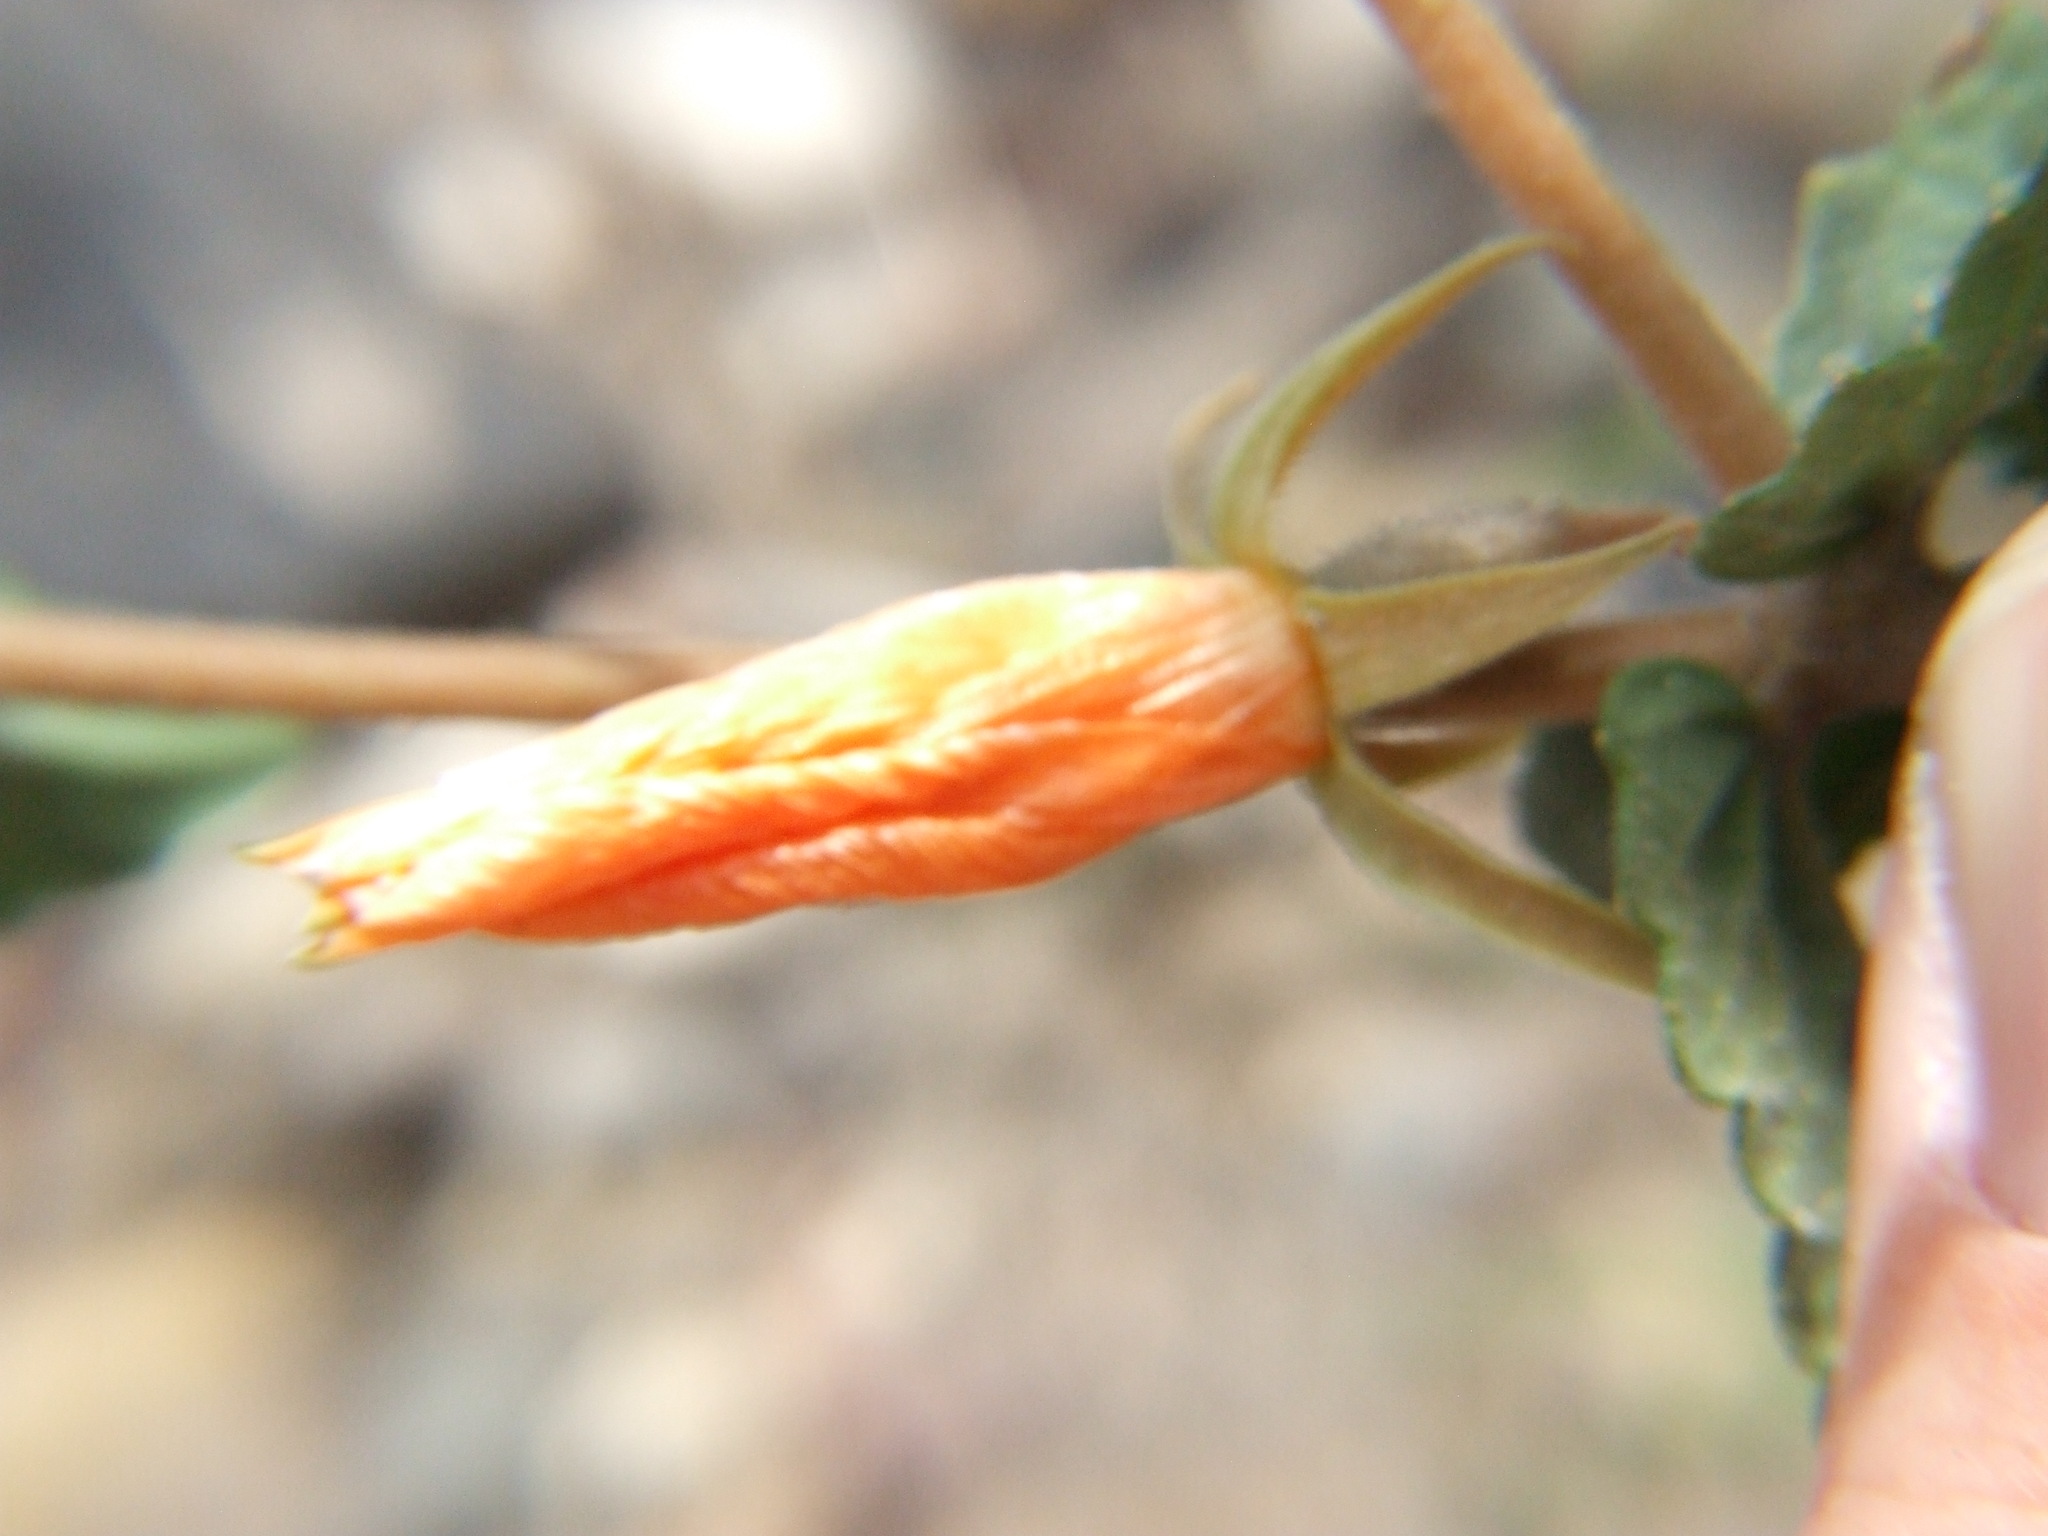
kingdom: Plantae
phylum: Tracheophyta
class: Magnoliopsida
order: Cornales
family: Loasaceae
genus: Mentzelia
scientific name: Mentzelia scabra
